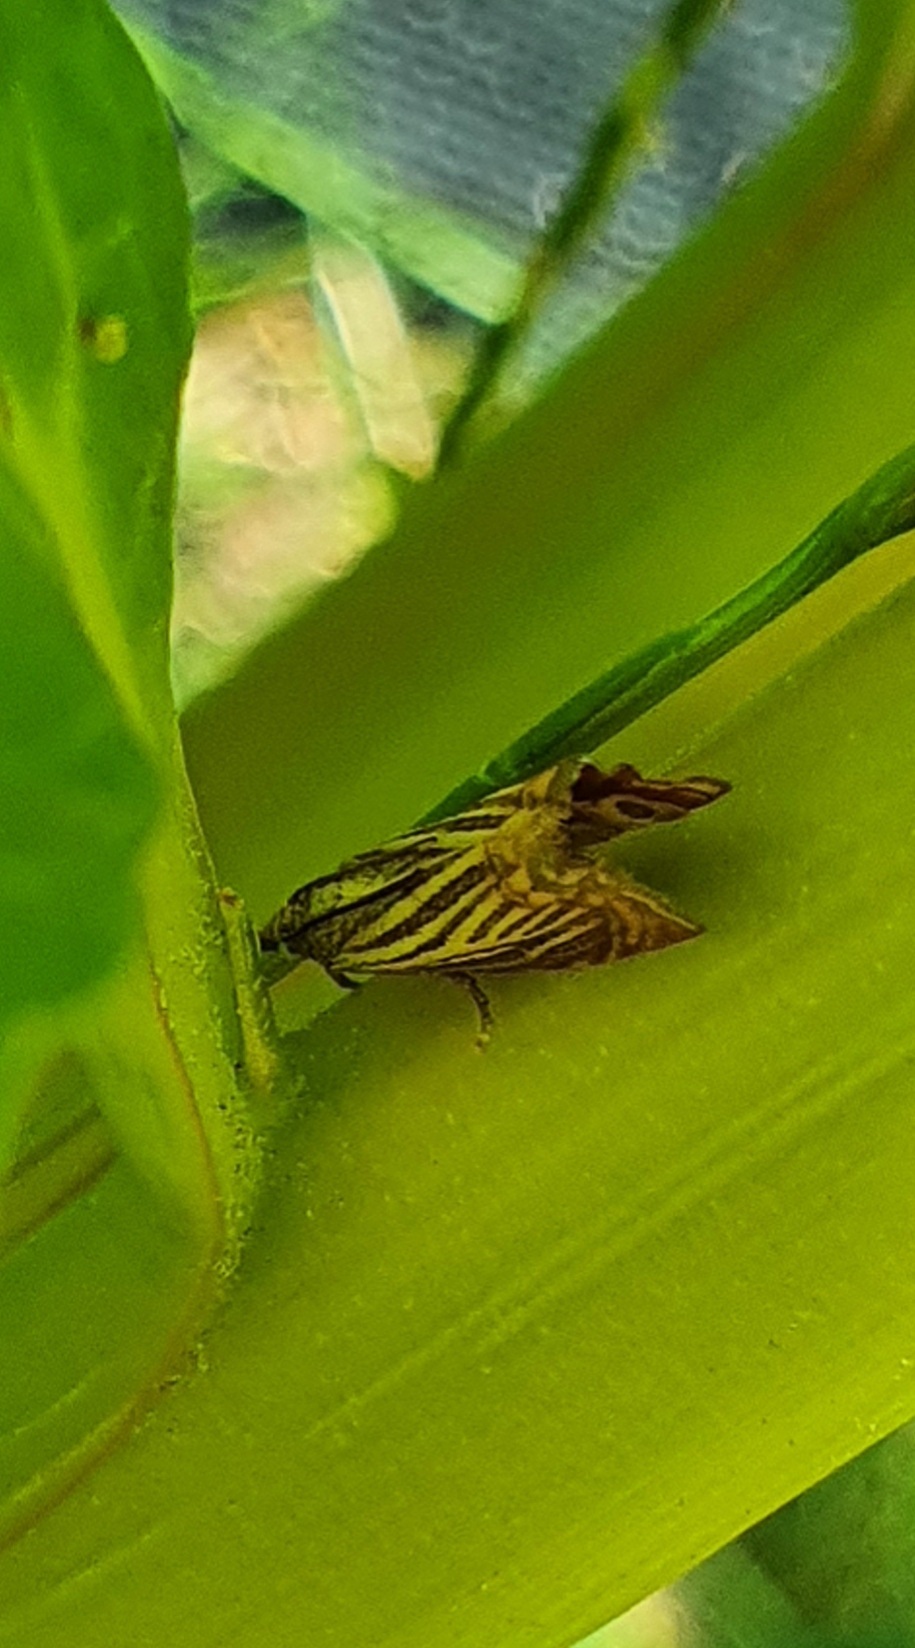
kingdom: Animalia
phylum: Arthropoda
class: Insecta
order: Lepidoptera
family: Crambidae
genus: Chrysoteuchia
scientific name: Chrysoteuchia culmella
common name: Garden grass-veneer
